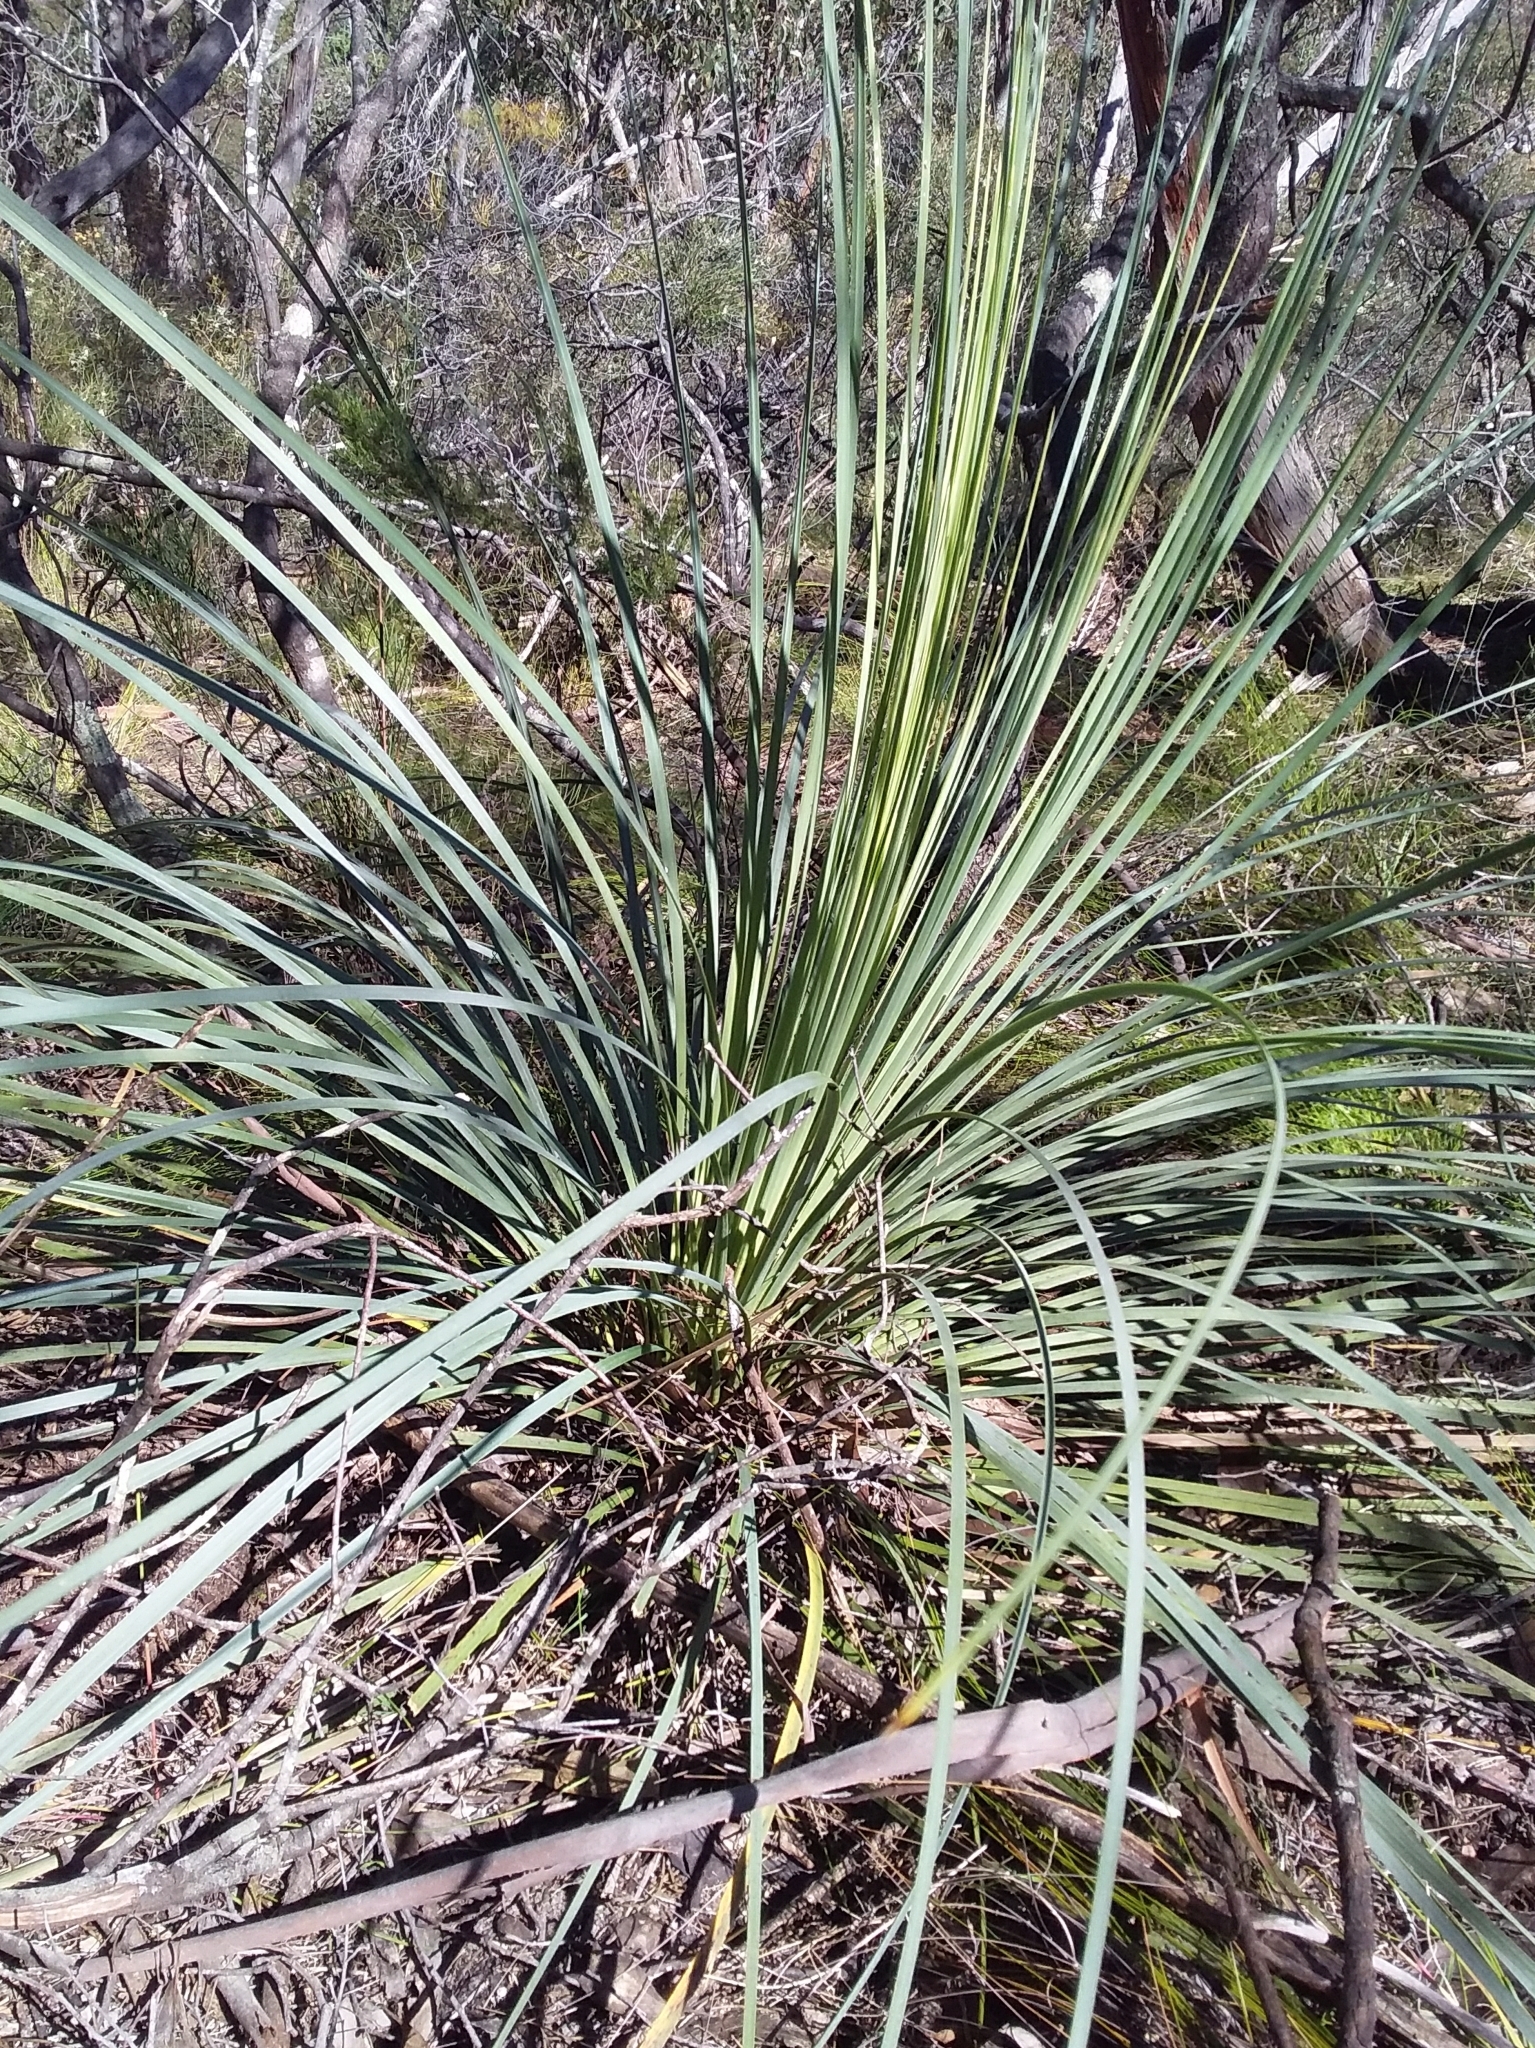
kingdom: Plantae
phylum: Tracheophyta
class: Liliopsida
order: Asparagales
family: Asphodelaceae
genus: Xanthorrhoea
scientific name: Xanthorrhoea semiplana
